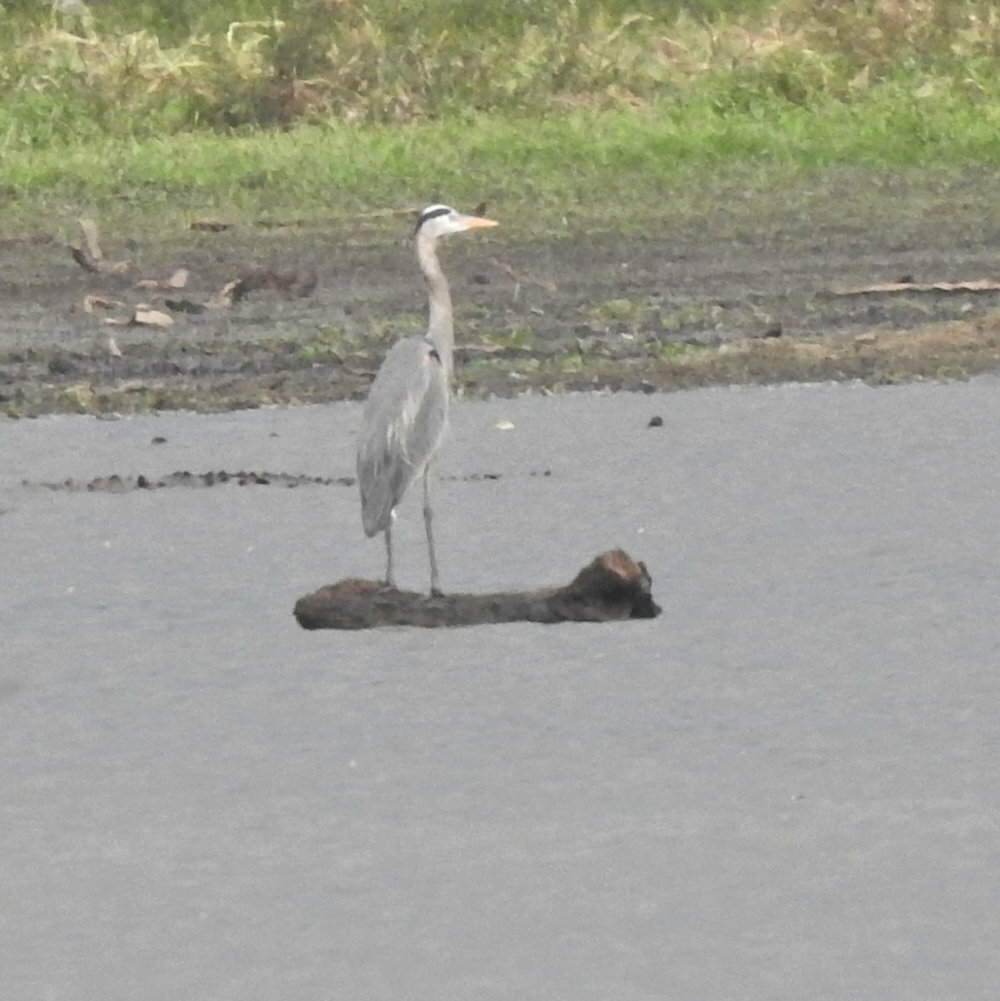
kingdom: Animalia
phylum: Chordata
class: Aves
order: Pelecaniformes
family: Ardeidae
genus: Ardea
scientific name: Ardea herodias
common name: Great blue heron
